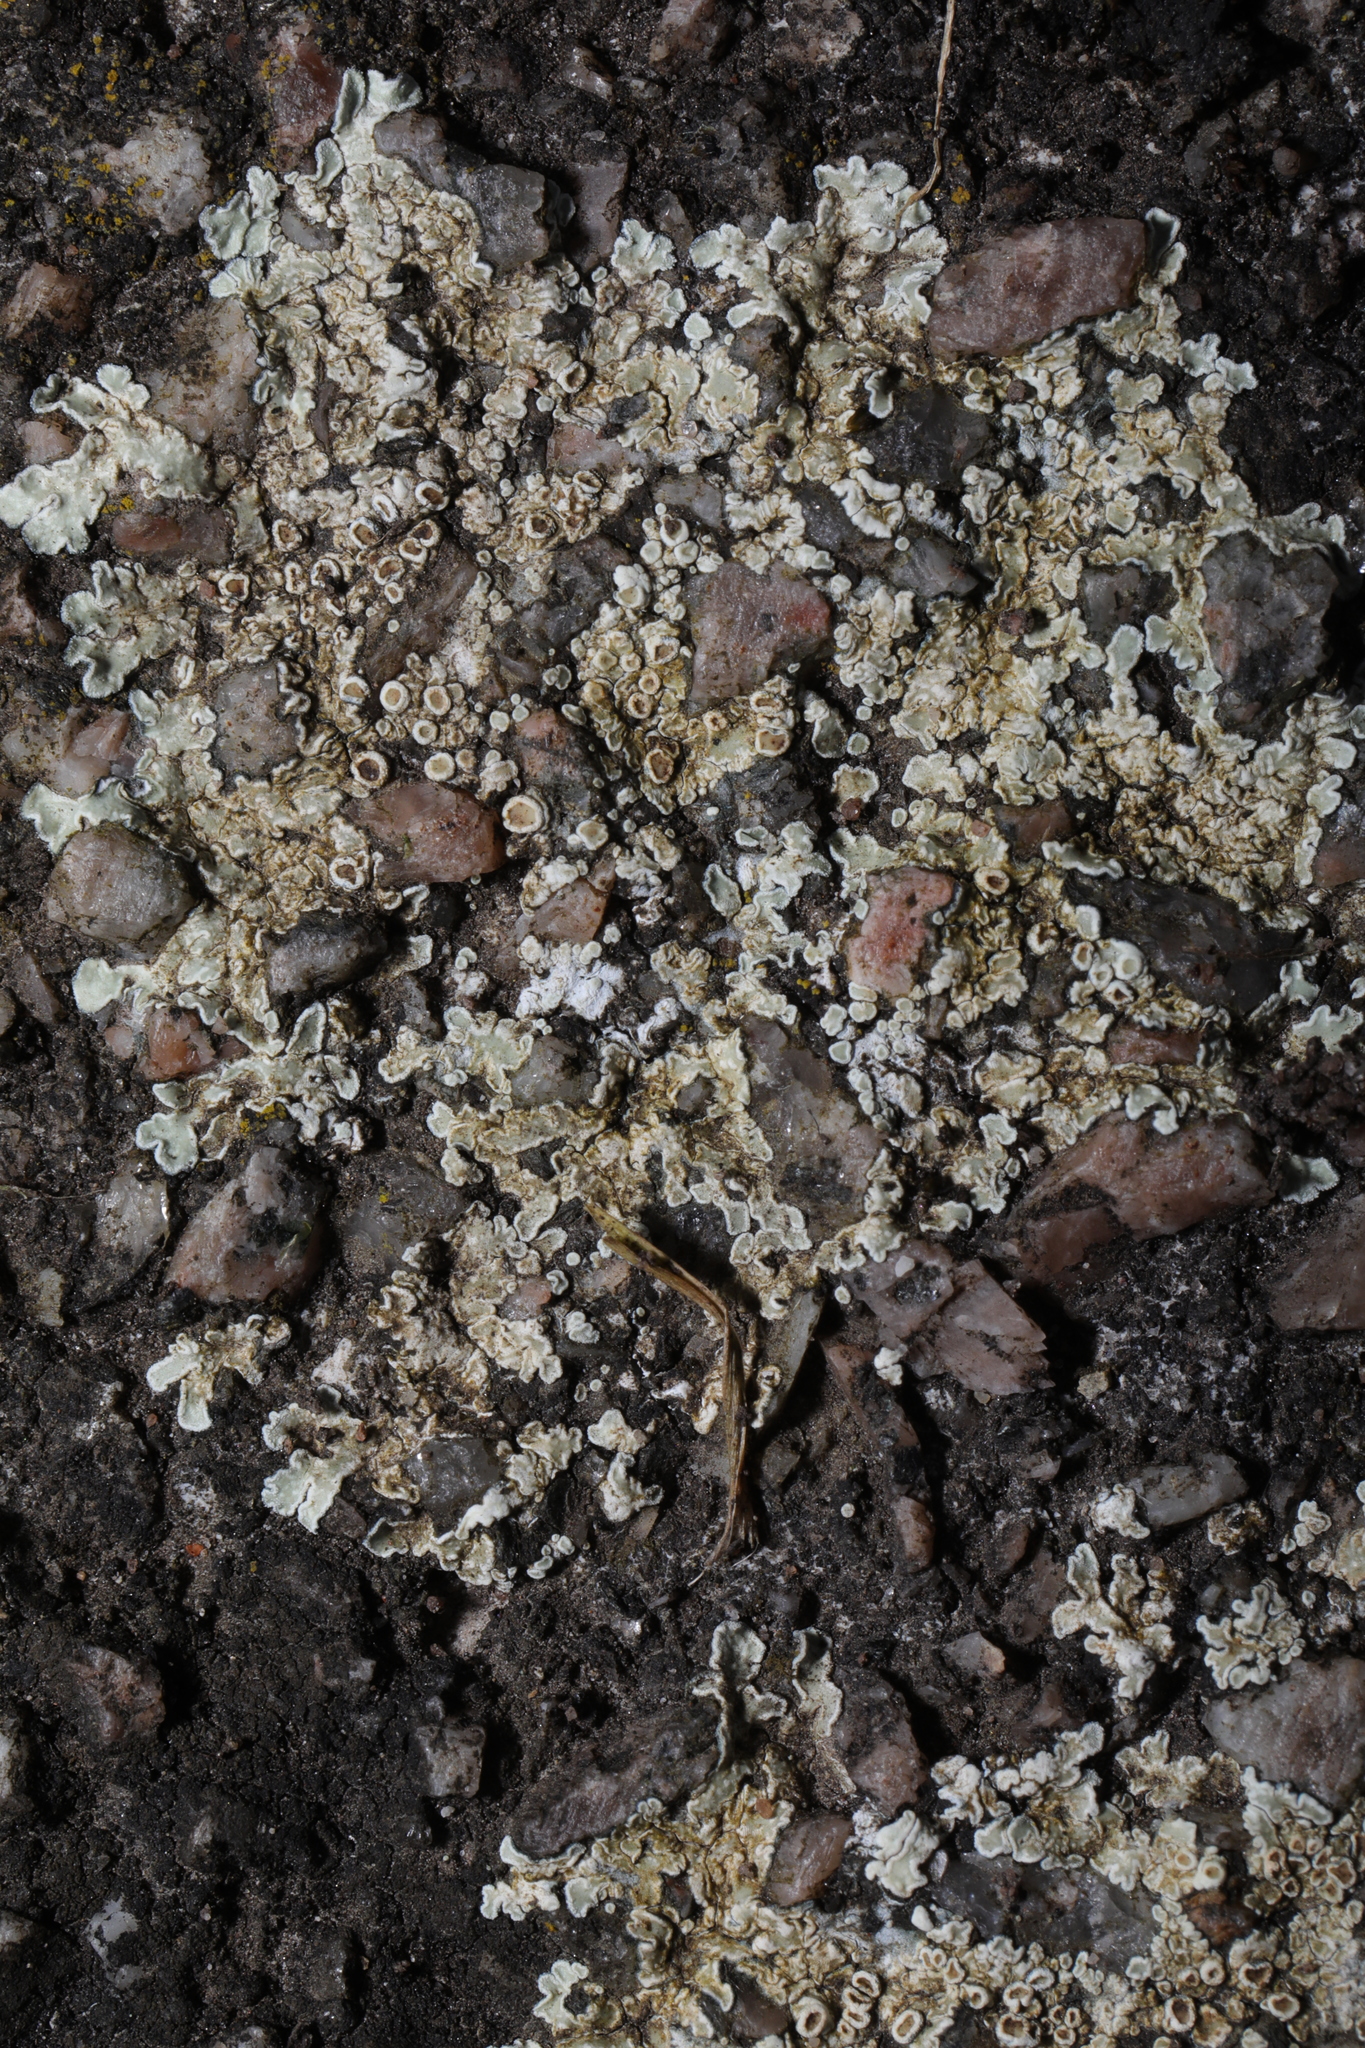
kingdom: Fungi
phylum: Ascomycota
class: Lecanoromycetes
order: Lecanorales
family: Lecanoraceae
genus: Protoparmeliopsis
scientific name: Protoparmeliopsis muralis
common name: Stonewall rim lichen
